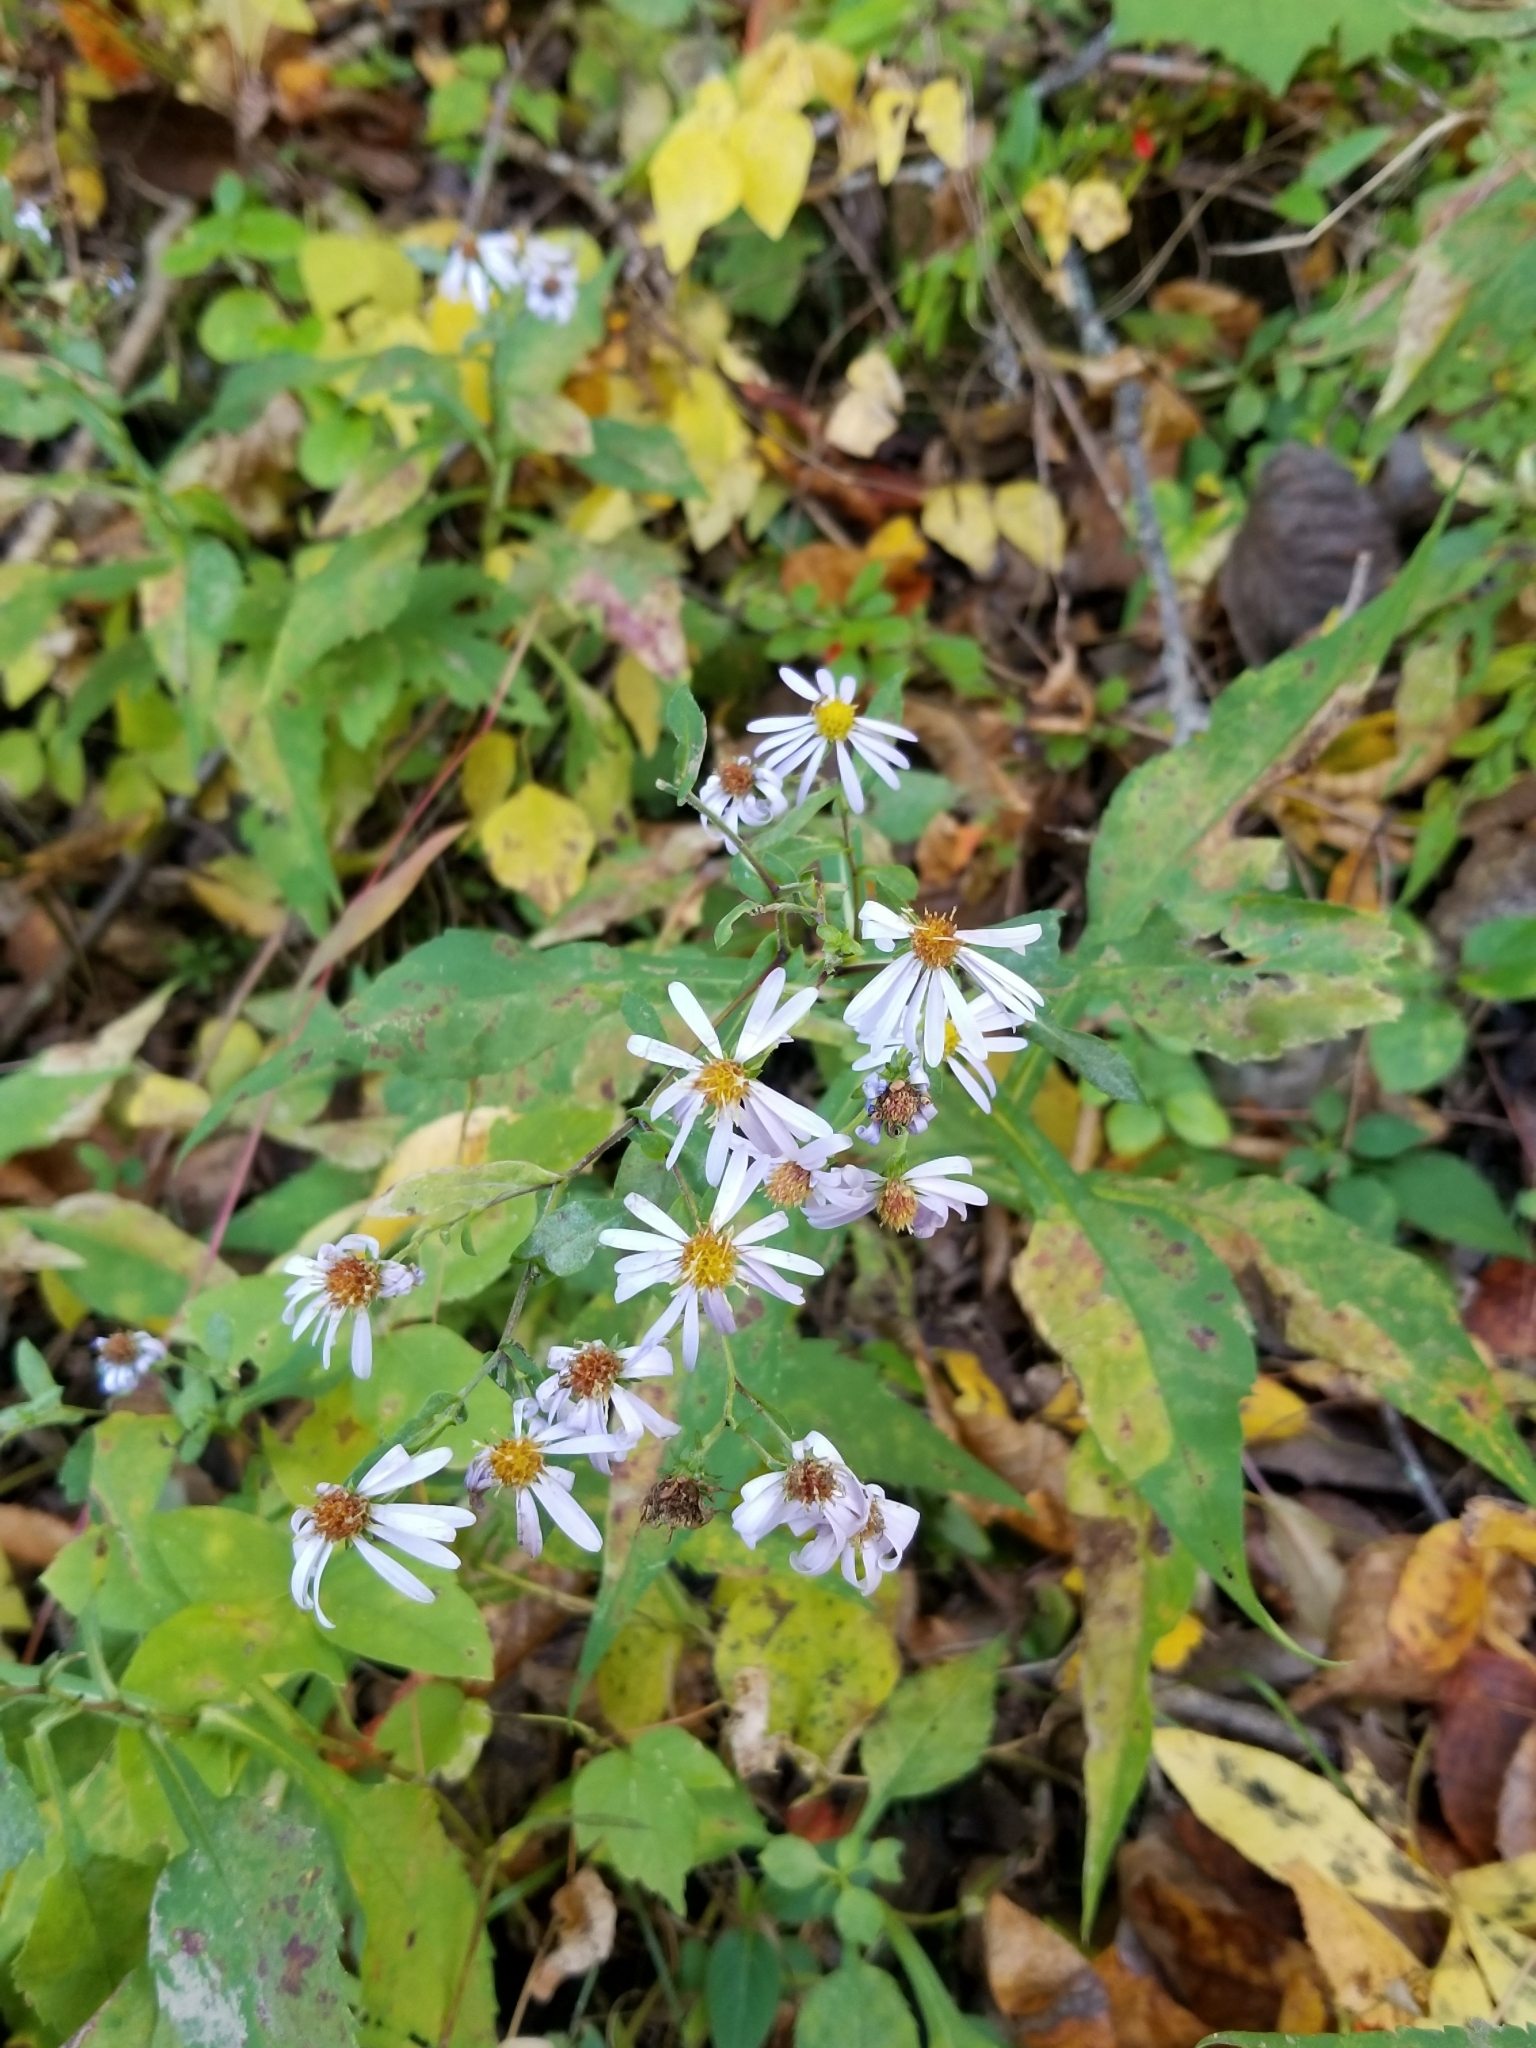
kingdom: Plantae
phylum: Tracheophyta
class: Magnoliopsida
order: Asterales
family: Asteraceae
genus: Symphyotrichum
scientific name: Symphyotrichum prenanthoides
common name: Crooked-stem aster
